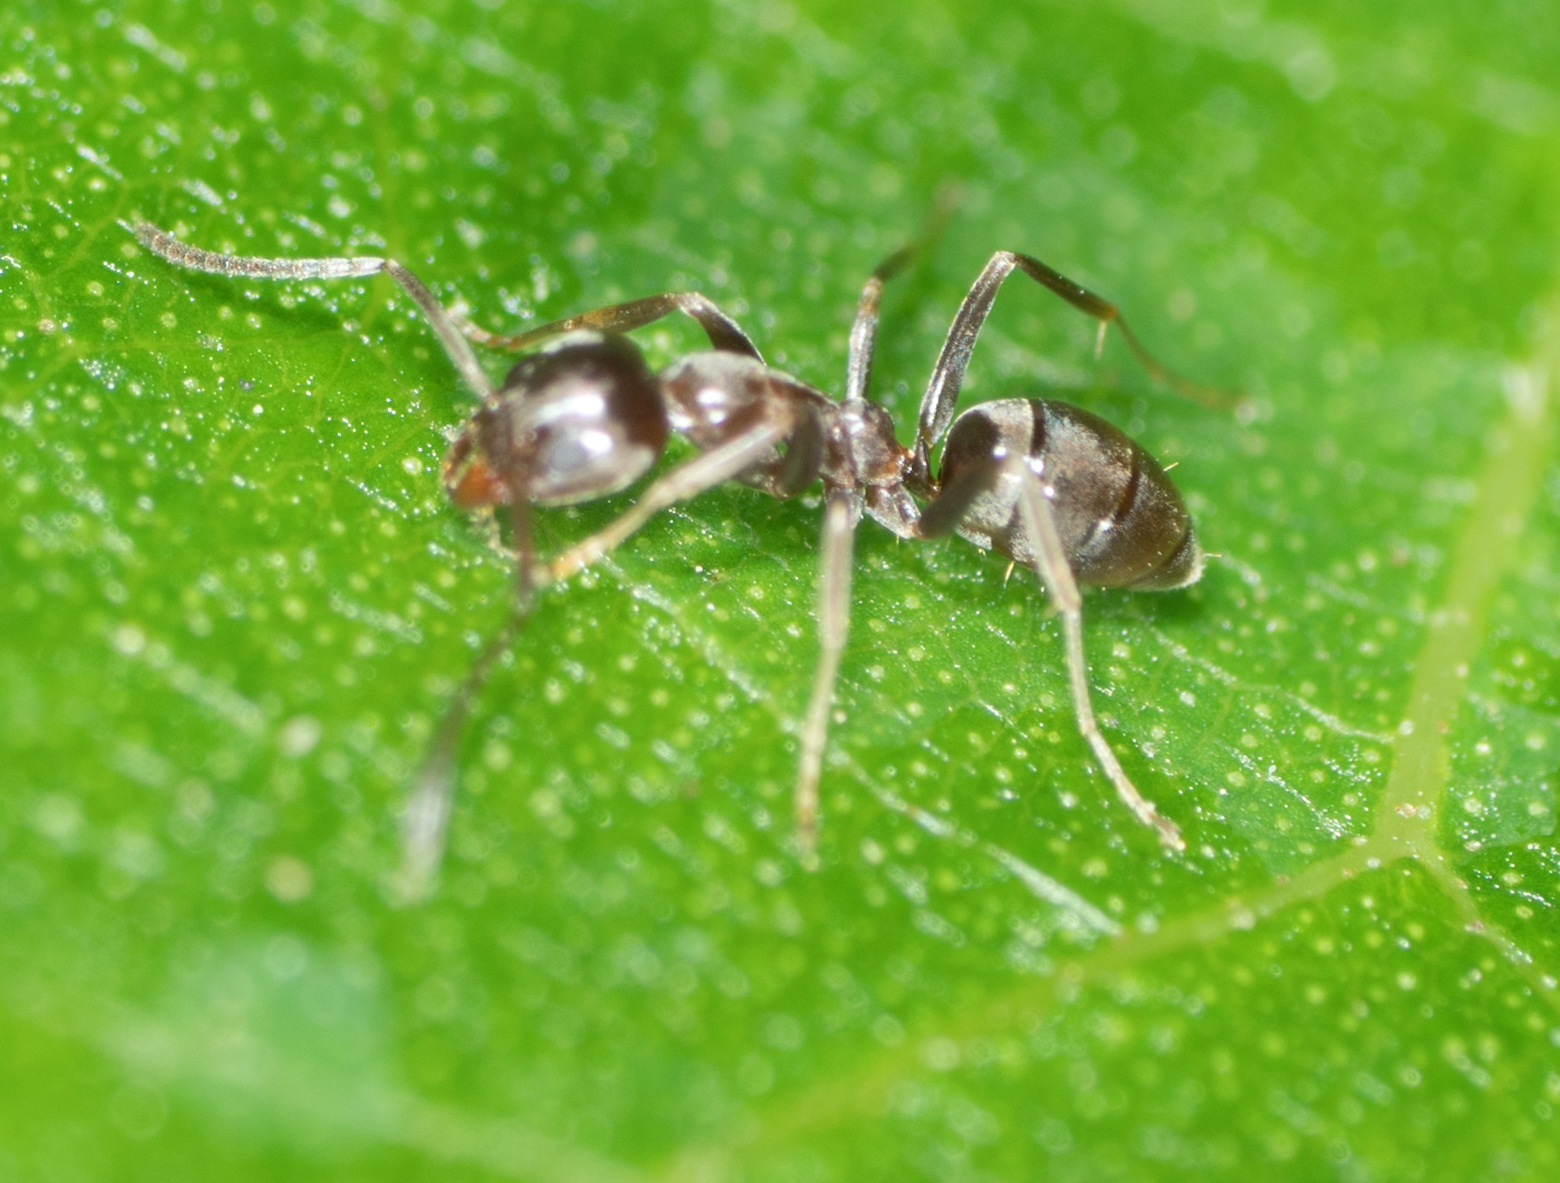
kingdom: Animalia
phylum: Arthropoda
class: Insecta
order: Hymenoptera
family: Formicidae
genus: Linepithema
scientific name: Linepithema humile
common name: Argentine ant
